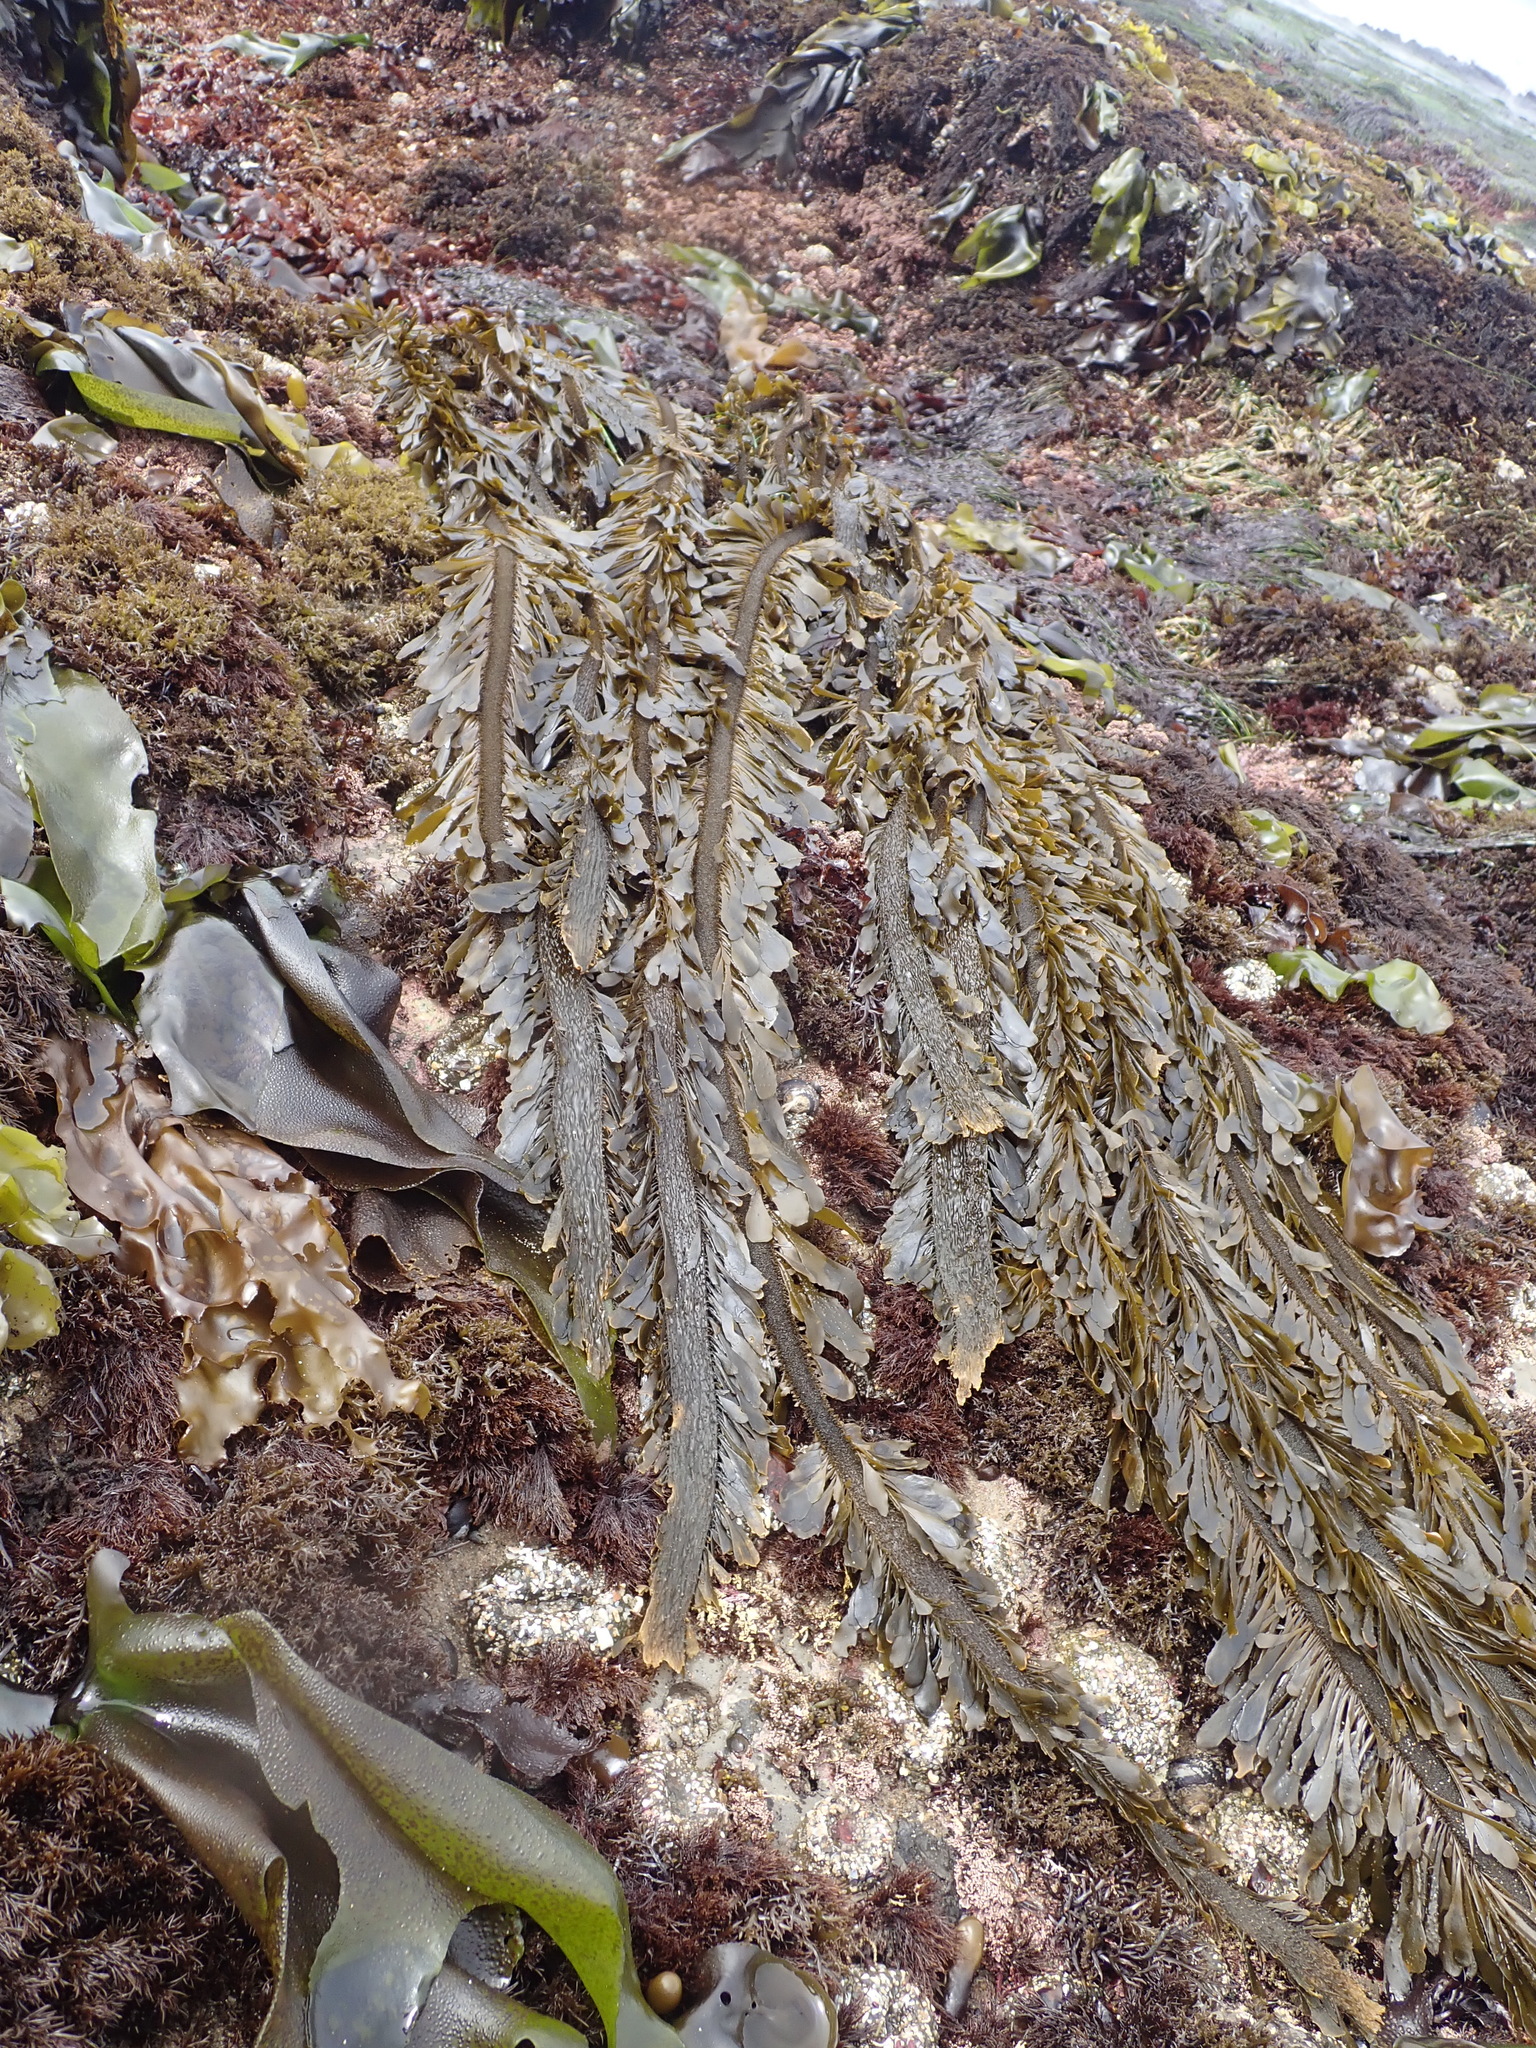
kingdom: Chromista
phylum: Ochrophyta
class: Phaeophyceae
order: Laminariales
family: Lessoniaceae
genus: Egregia
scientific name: Egregia menziesii
